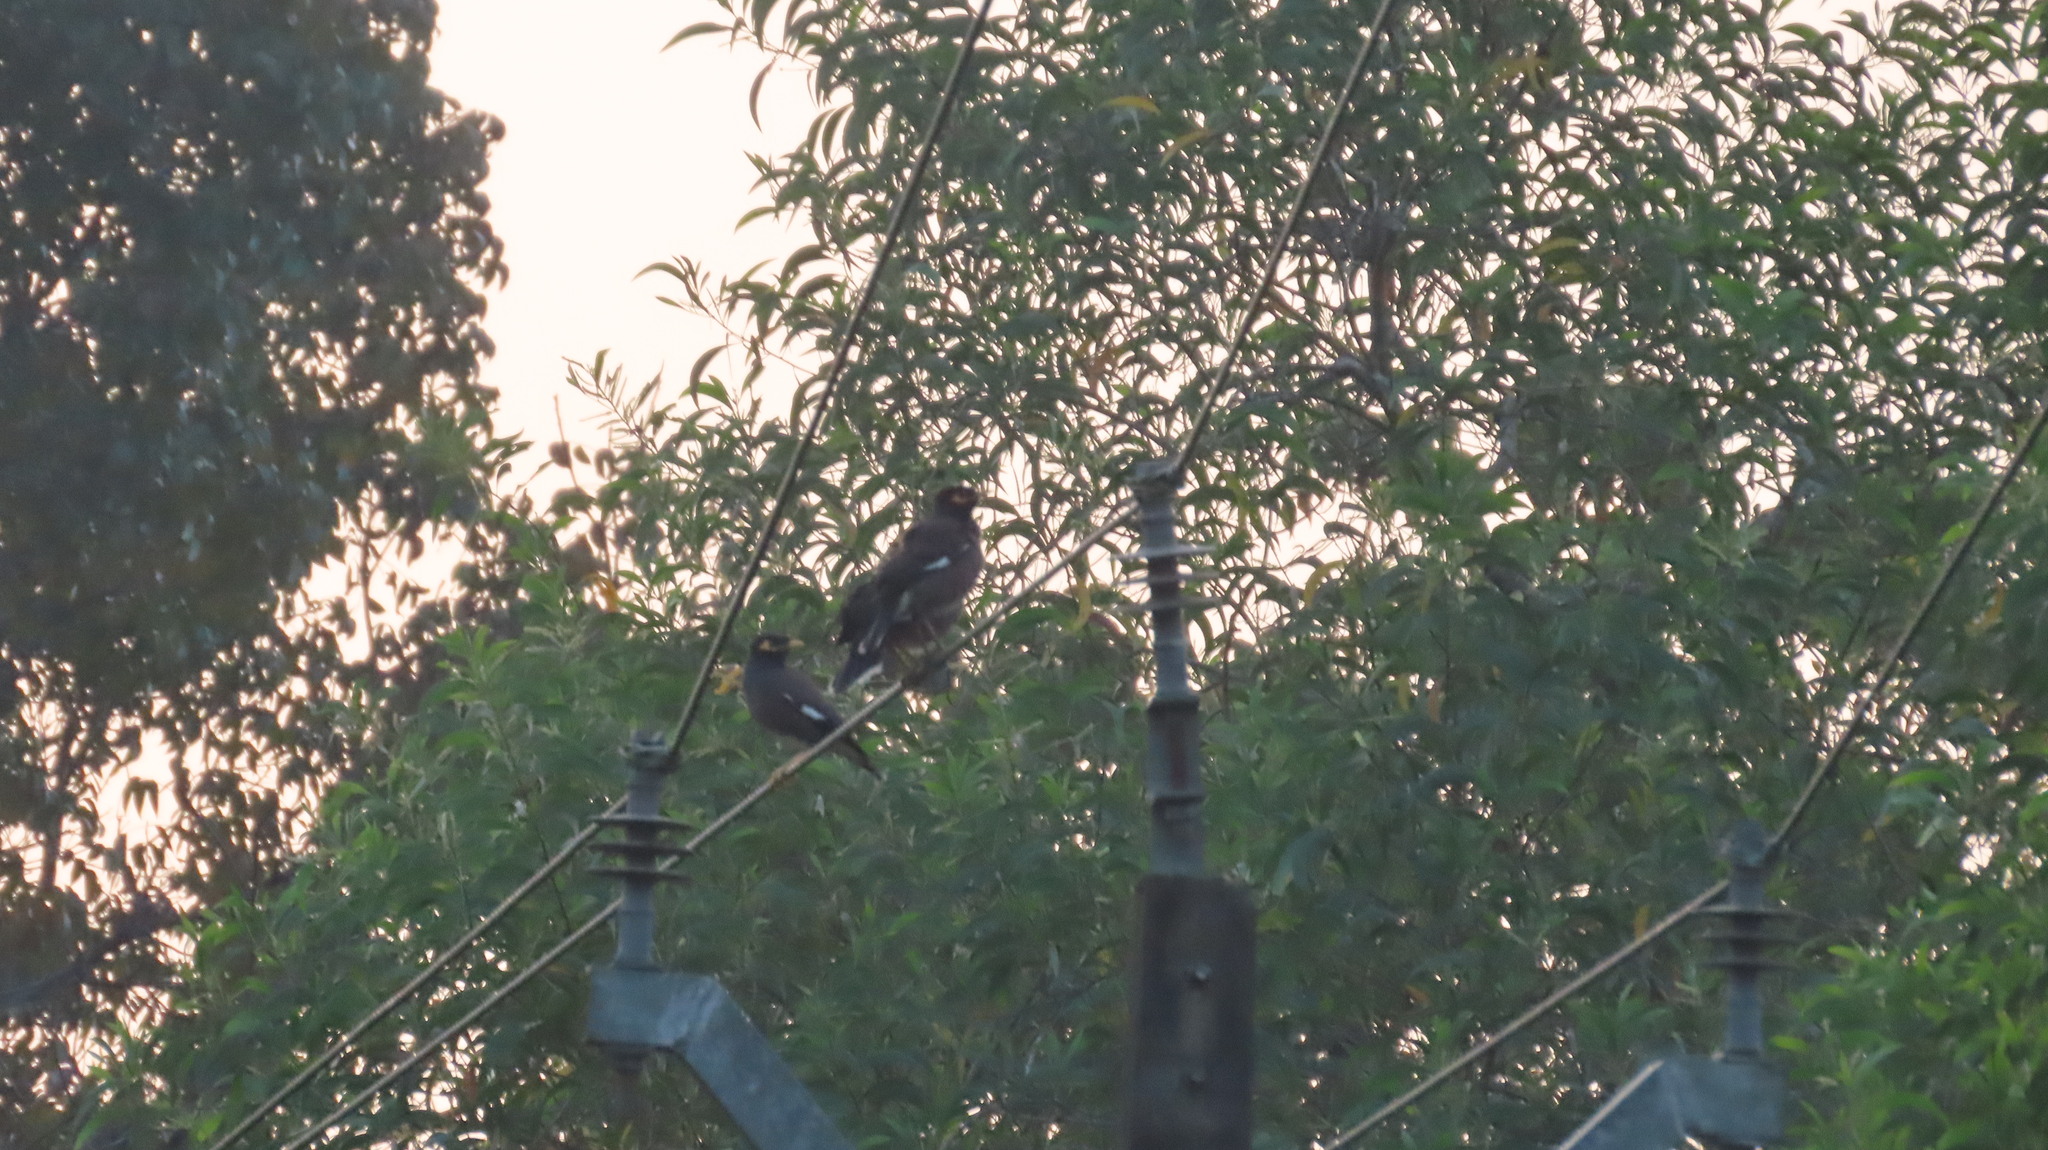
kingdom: Animalia
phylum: Chordata
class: Aves
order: Passeriformes
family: Sturnidae
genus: Acridotheres
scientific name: Acridotheres tristis
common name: Common myna
